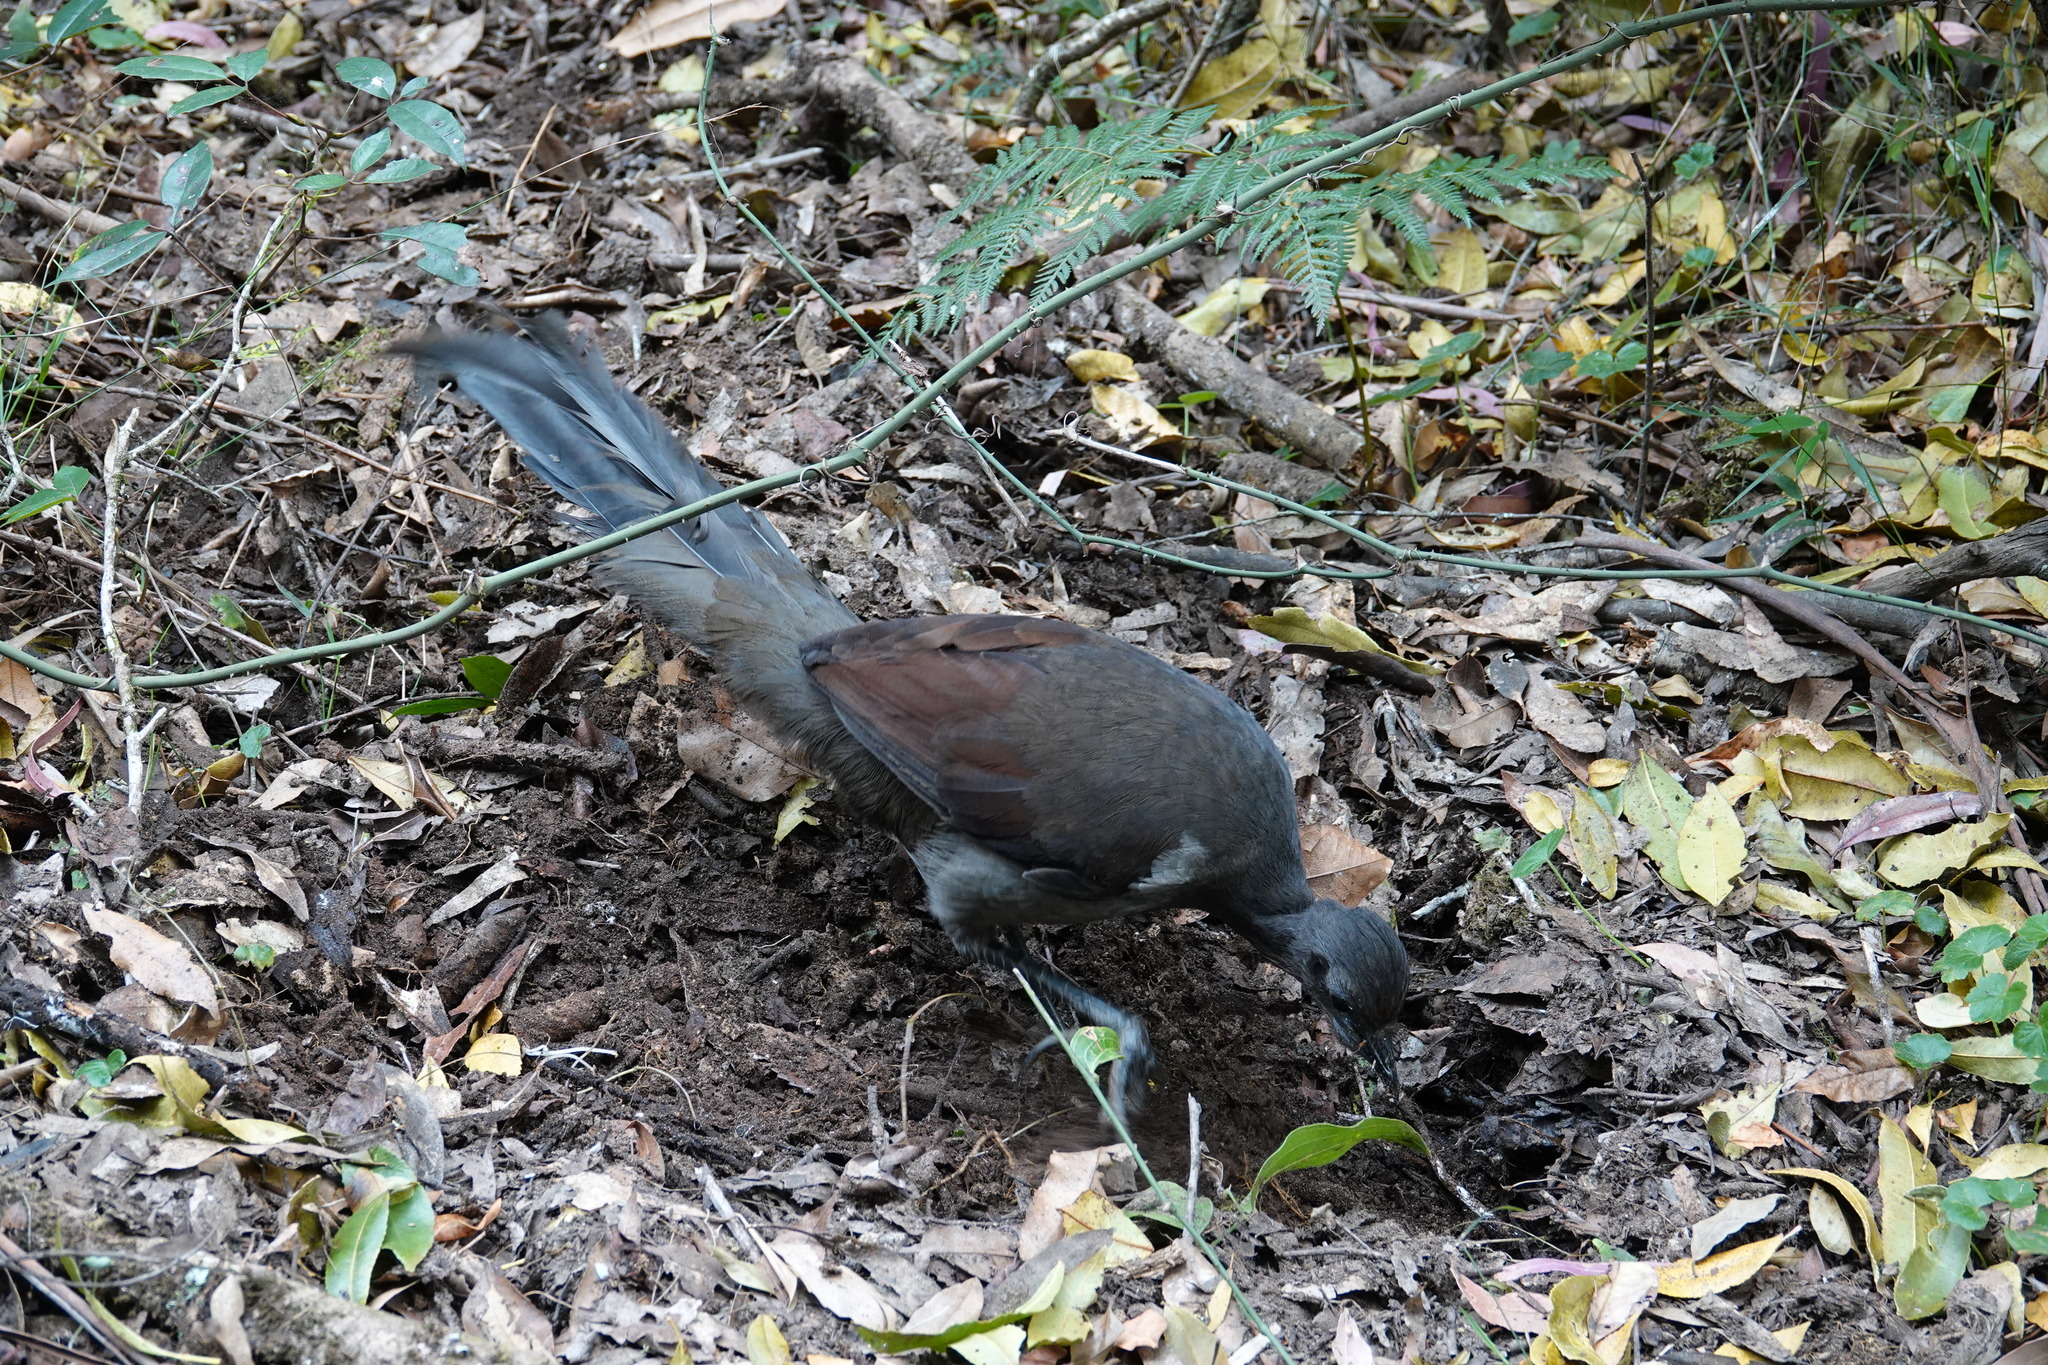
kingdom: Animalia
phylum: Chordata
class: Aves
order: Passeriformes
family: Menuridae
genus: Menura
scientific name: Menura novaehollandiae
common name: Superb lyrebird
